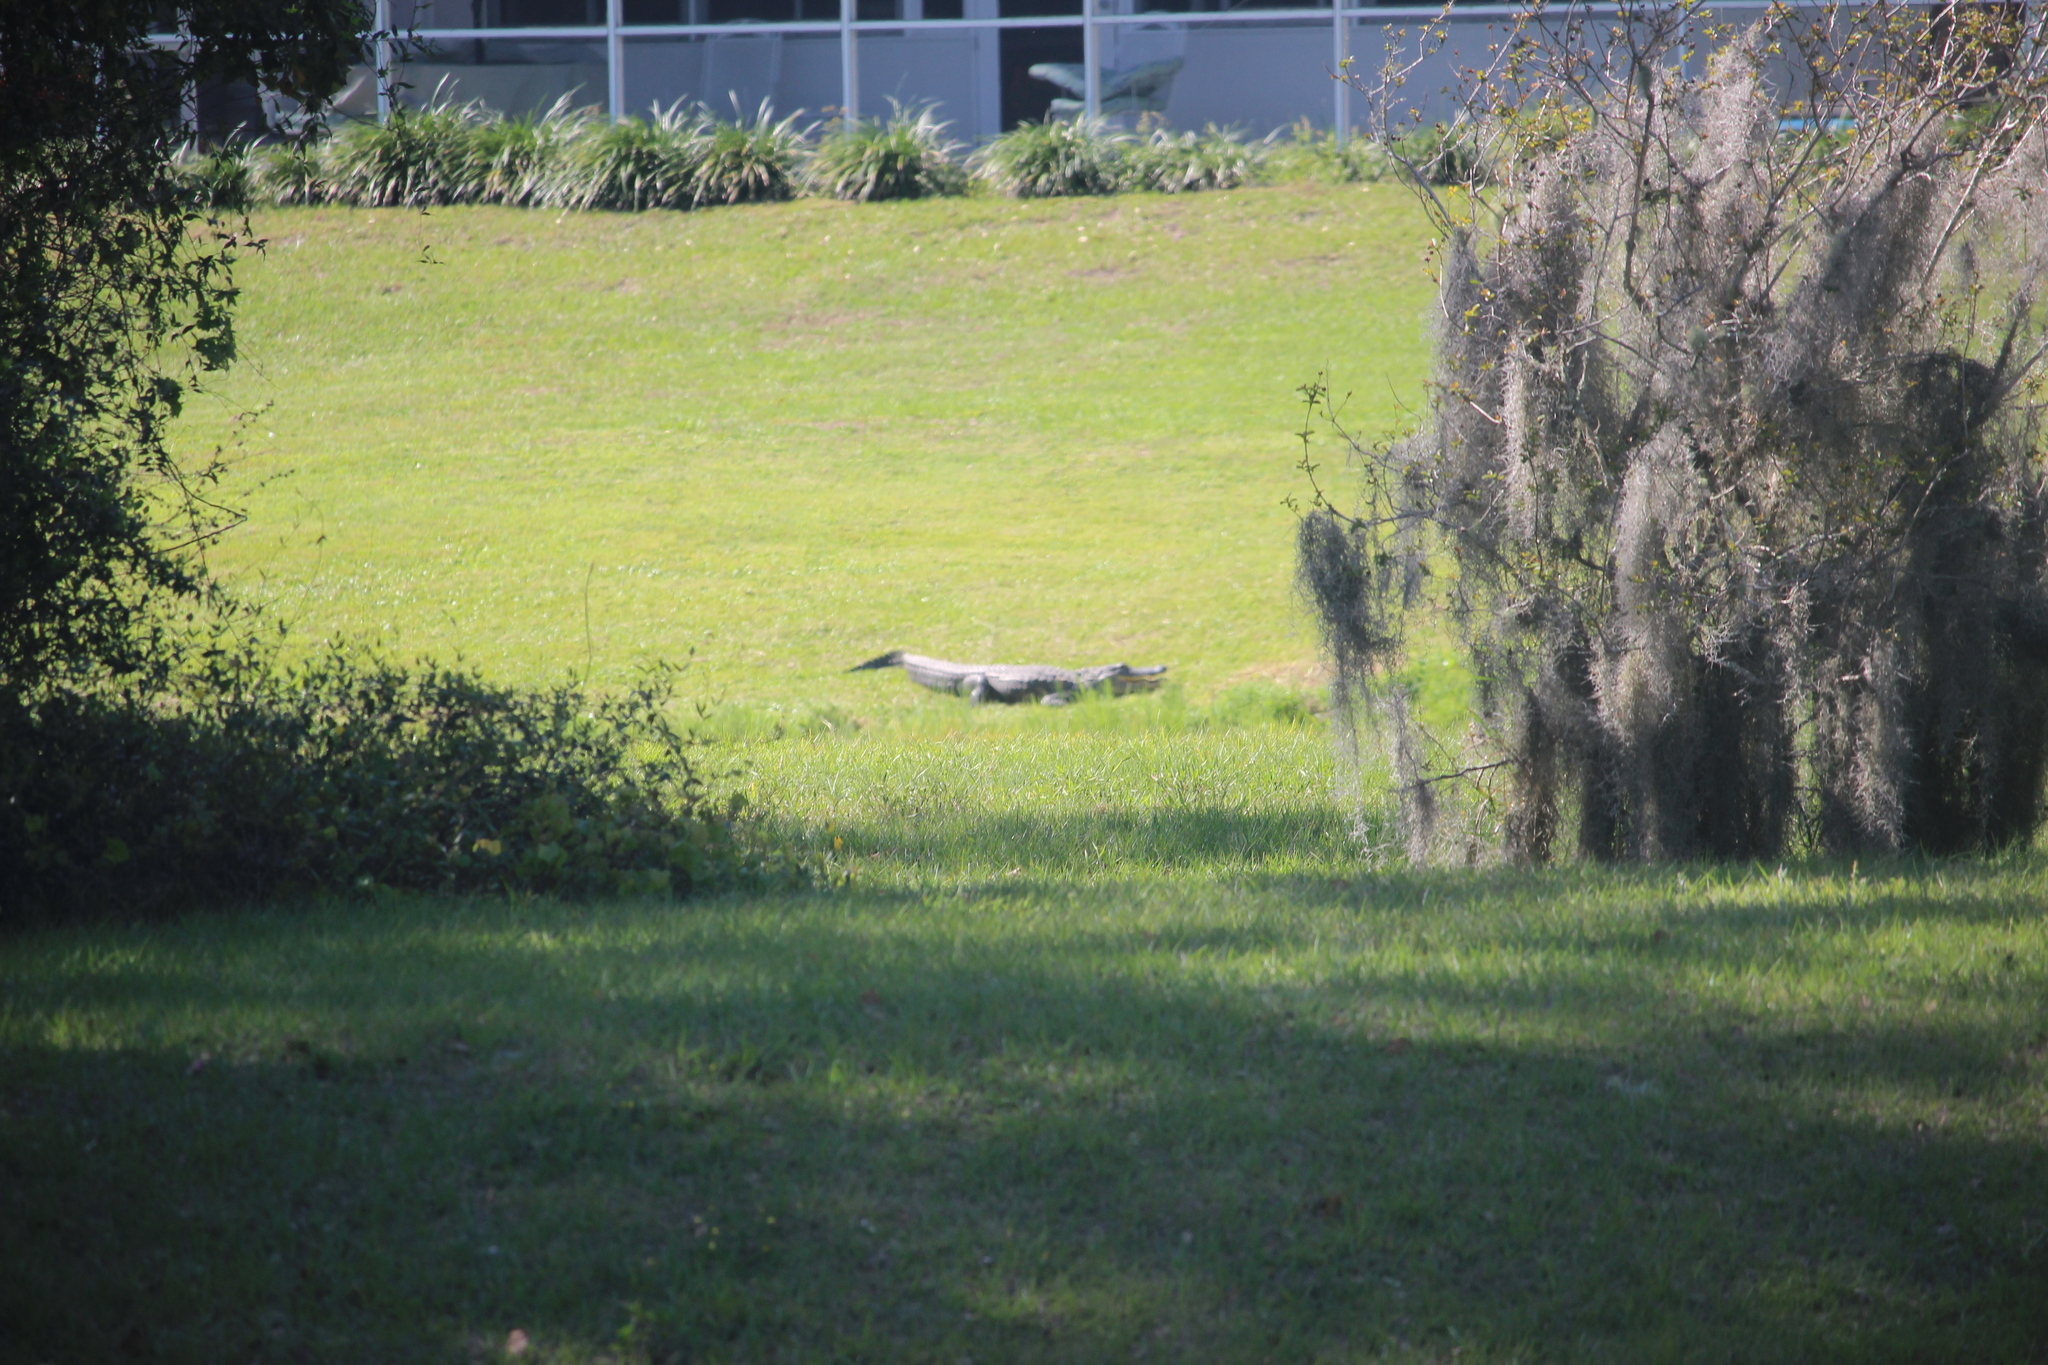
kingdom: Animalia
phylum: Chordata
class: Crocodylia
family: Alligatoridae
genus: Alligator
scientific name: Alligator mississippiensis
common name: American alligator
